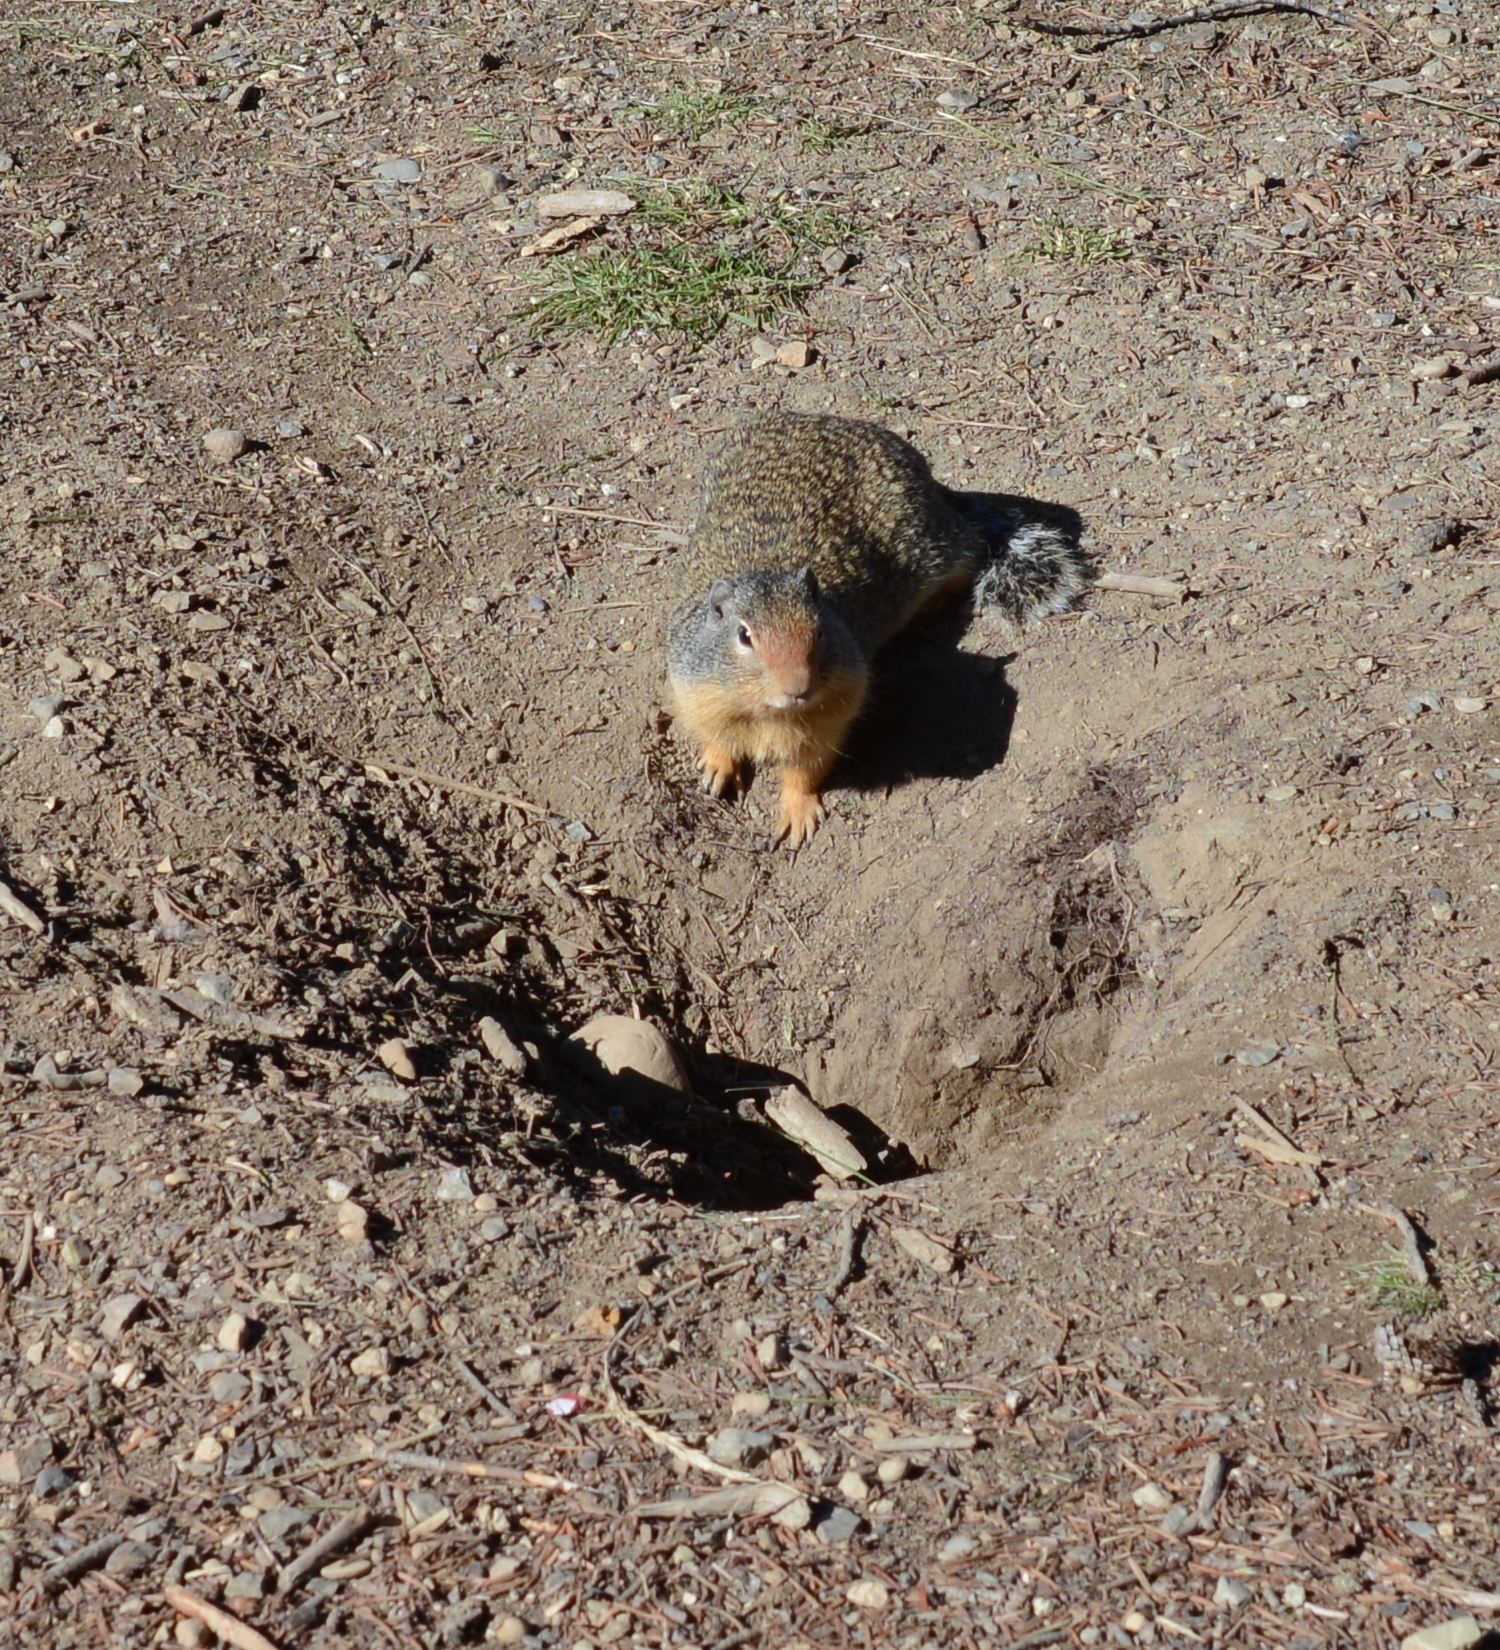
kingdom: Animalia
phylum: Chordata
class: Mammalia
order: Rodentia
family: Sciuridae
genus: Urocitellus
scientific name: Urocitellus columbianus
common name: Columbian ground squirrel
